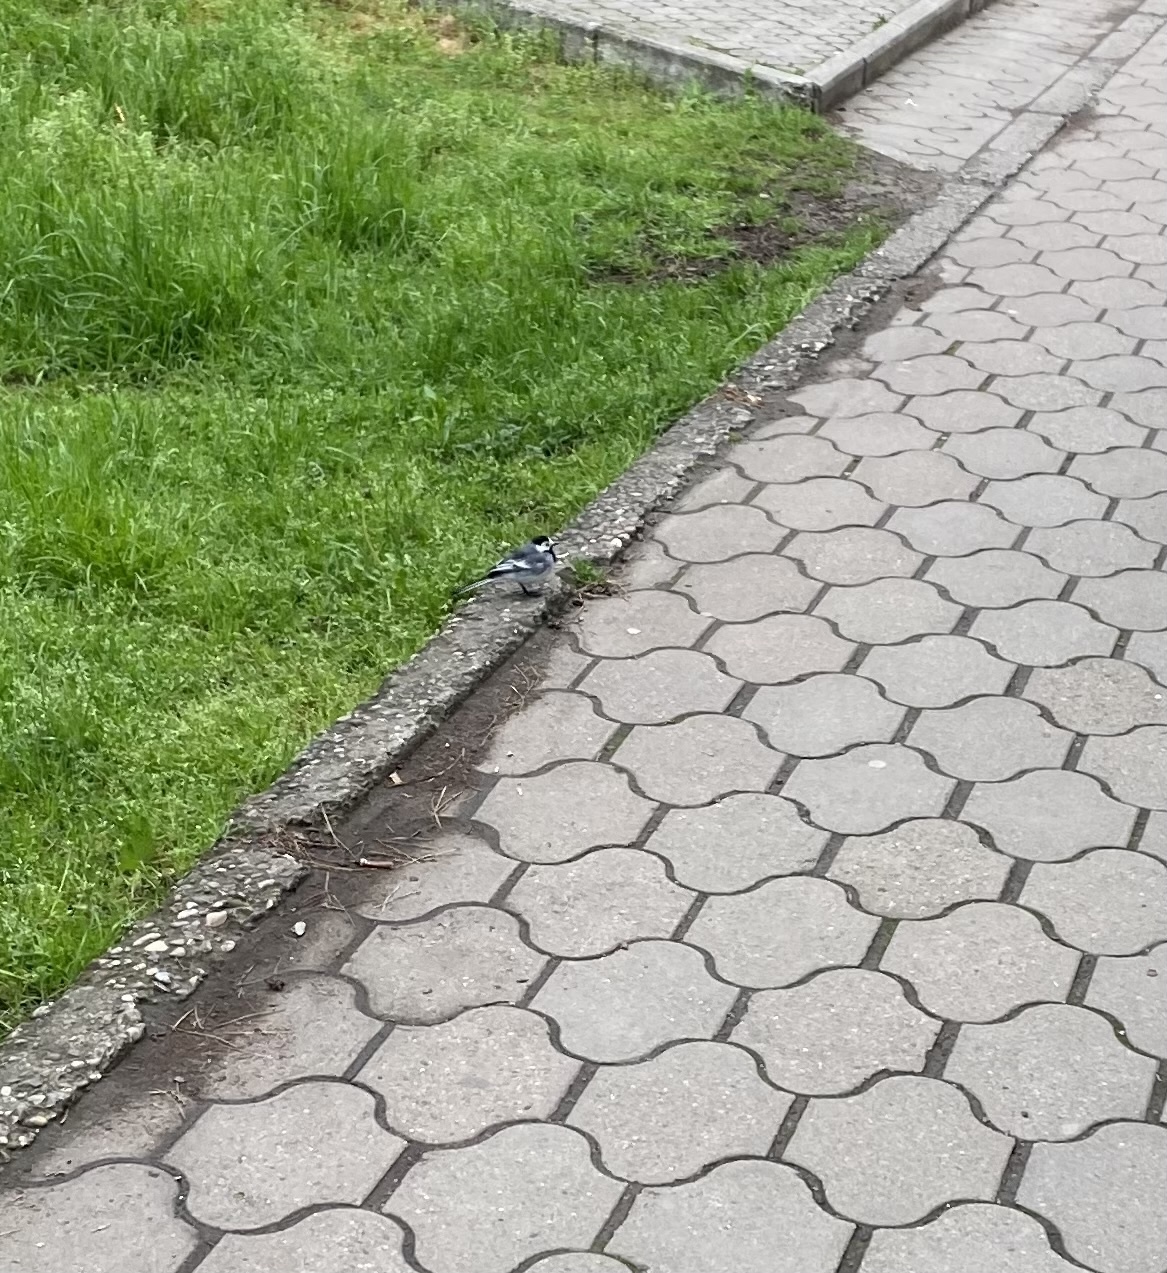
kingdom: Animalia
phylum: Chordata
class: Aves
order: Passeriformes
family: Motacillidae
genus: Motacilla
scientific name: Motacilla alba
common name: White wagtail
